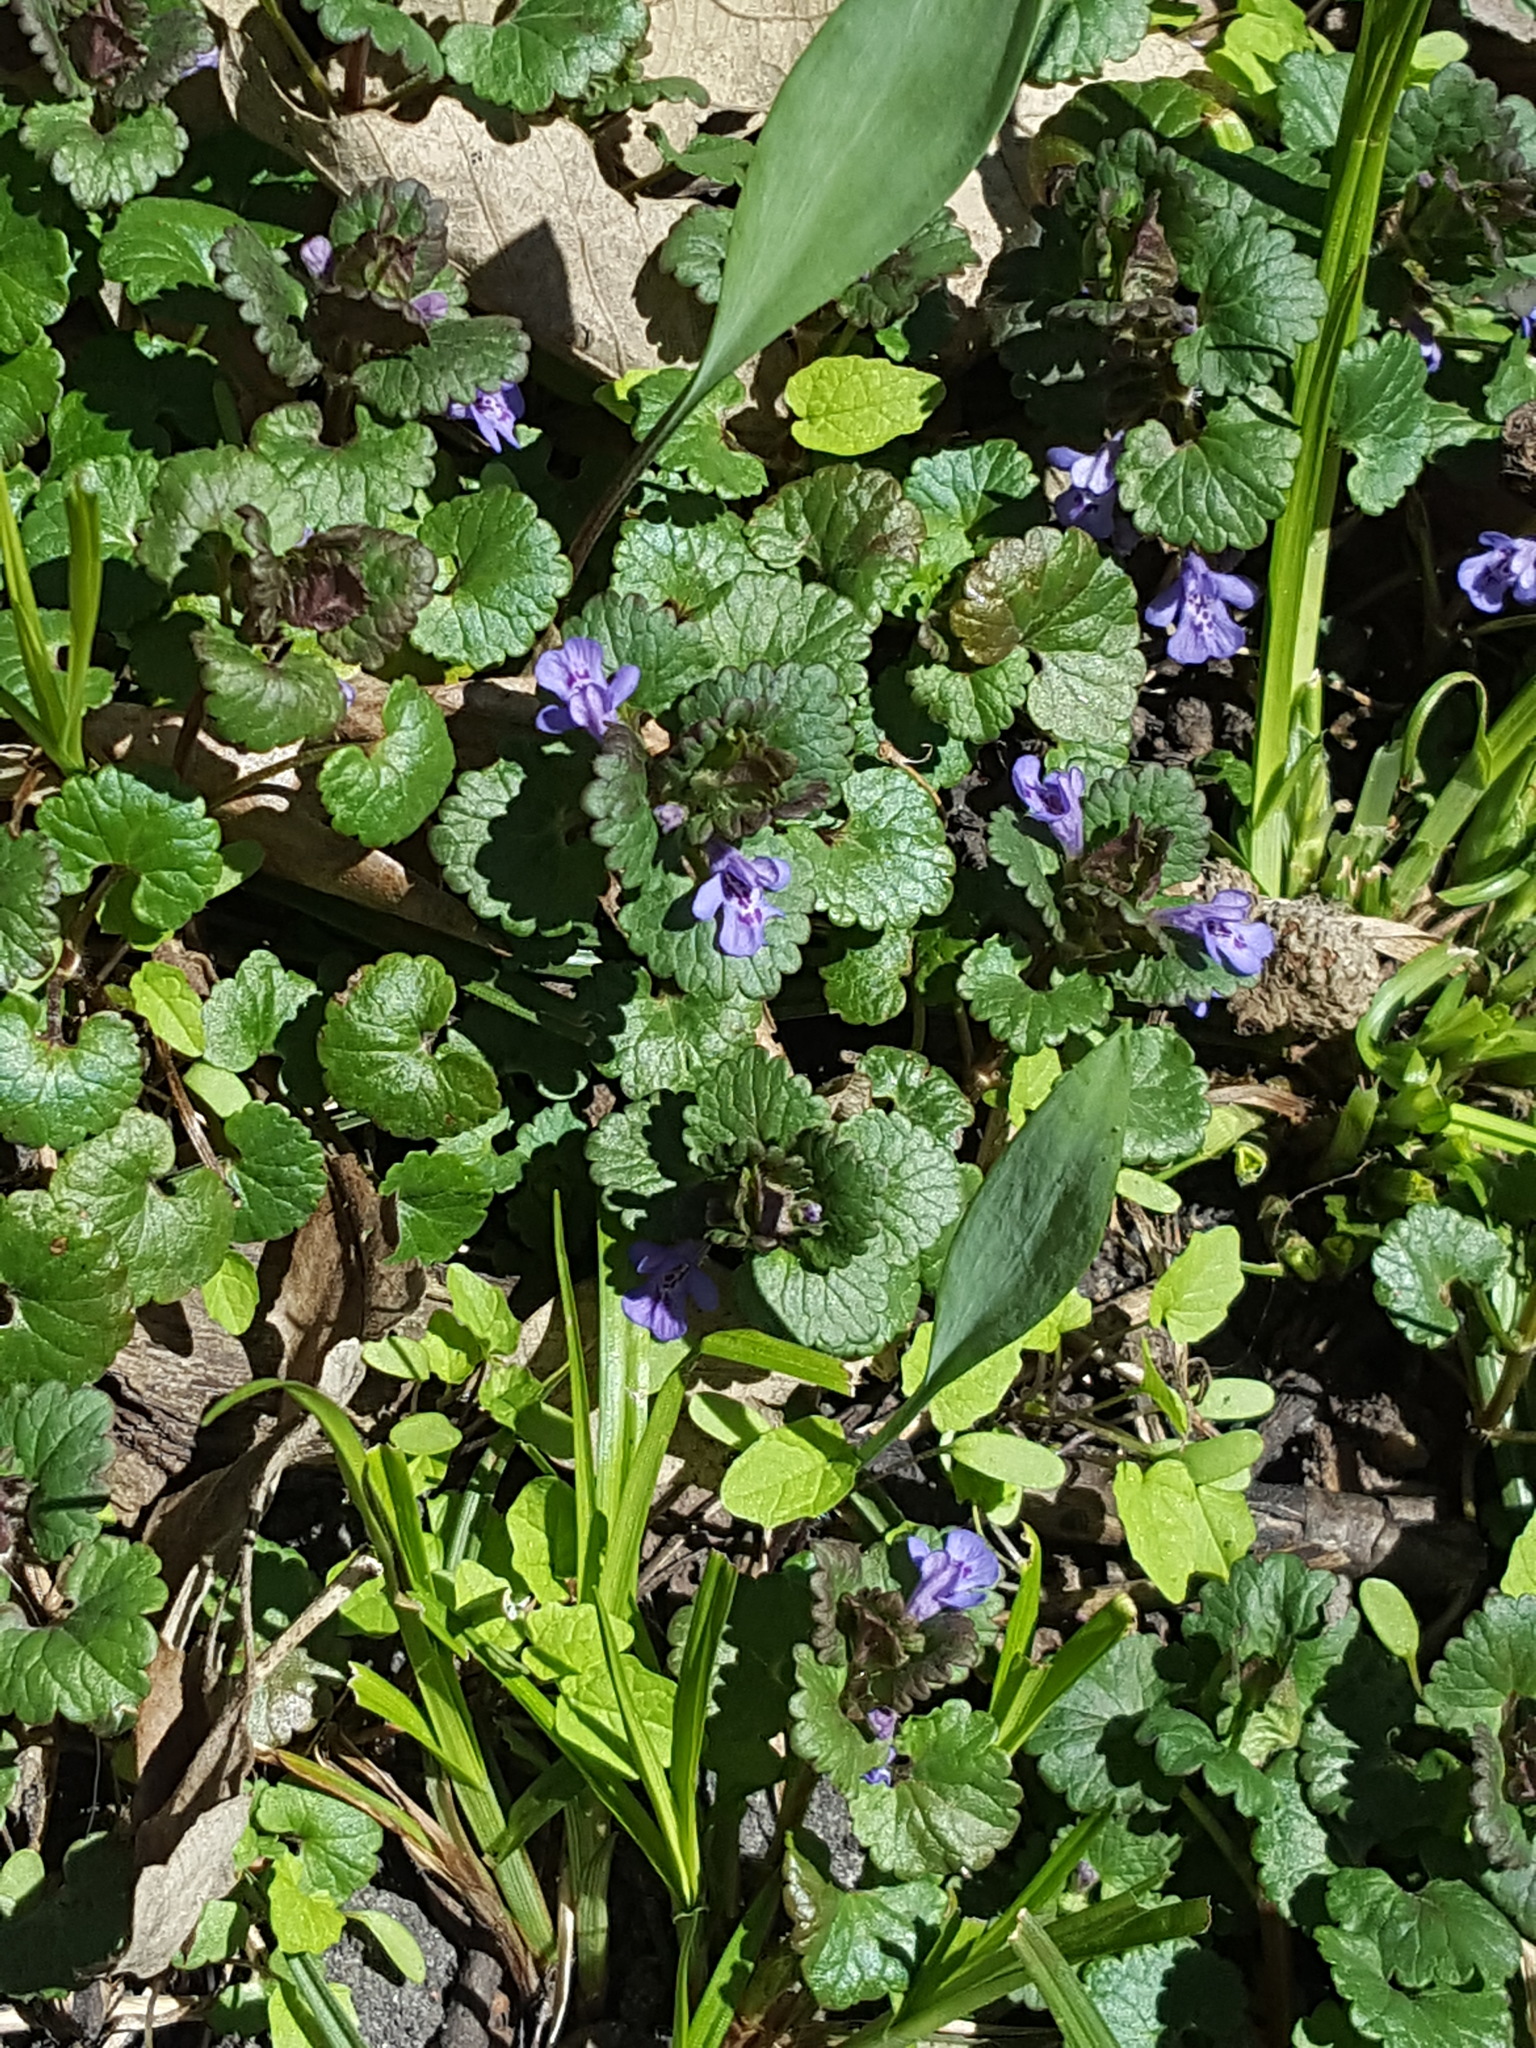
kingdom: Plantae
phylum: Tracheophyta
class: Magnoliopsida
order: Lamiales
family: Lamiaceae
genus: Glechoma
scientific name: Glechoma hederacea
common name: Ground ivy
